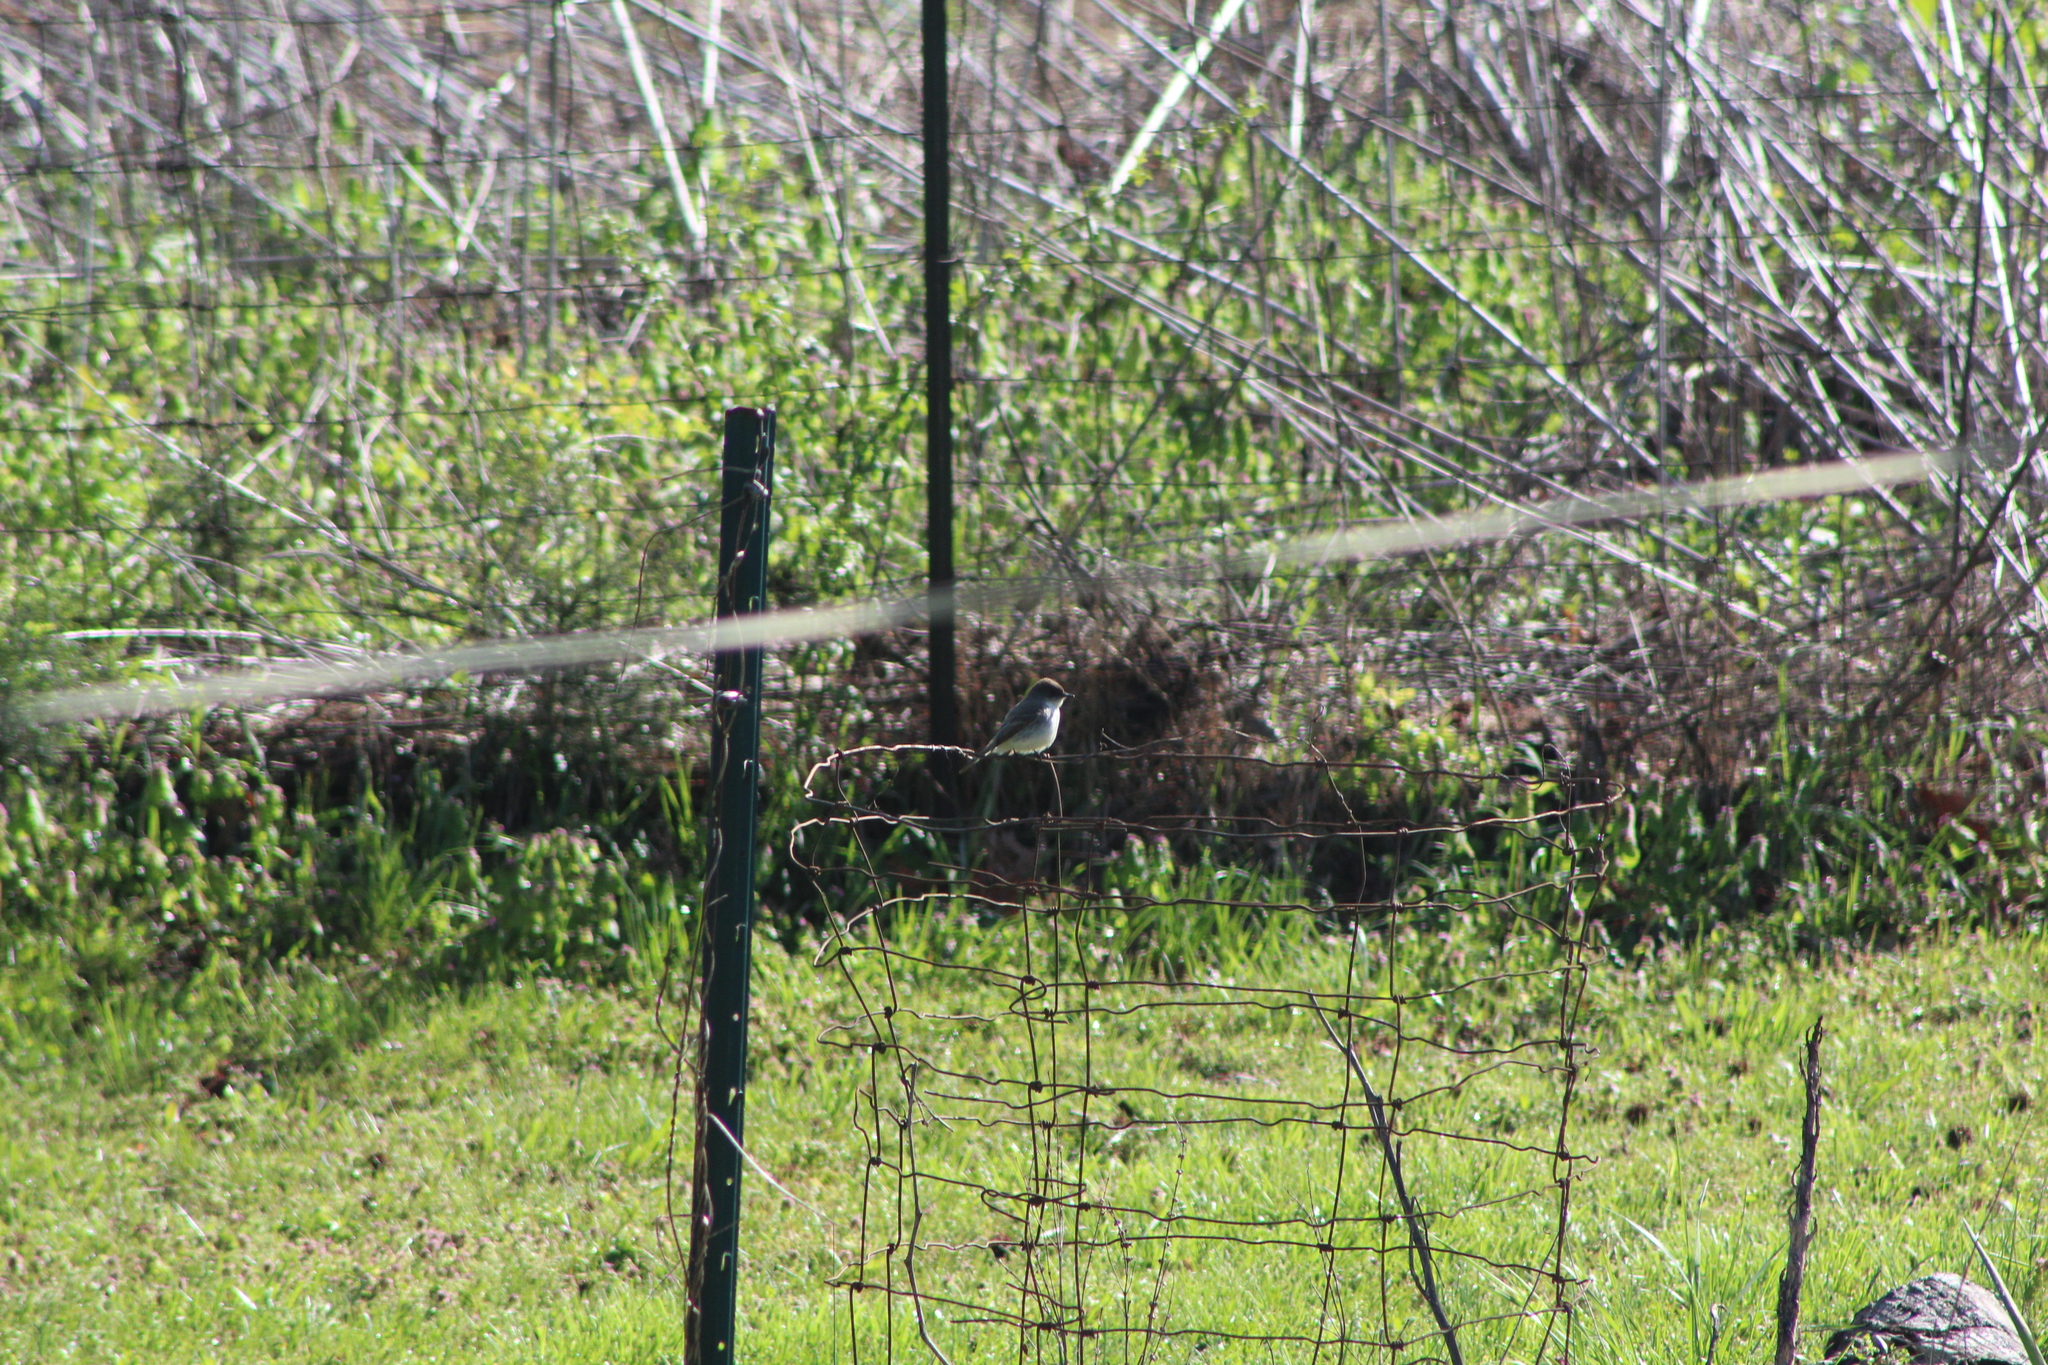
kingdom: Animalia
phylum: Chordata
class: Aves
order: Passeriformes
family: Tyrannidae
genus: Sayornis
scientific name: Sayornis phoebe
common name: Eastern phoebe
